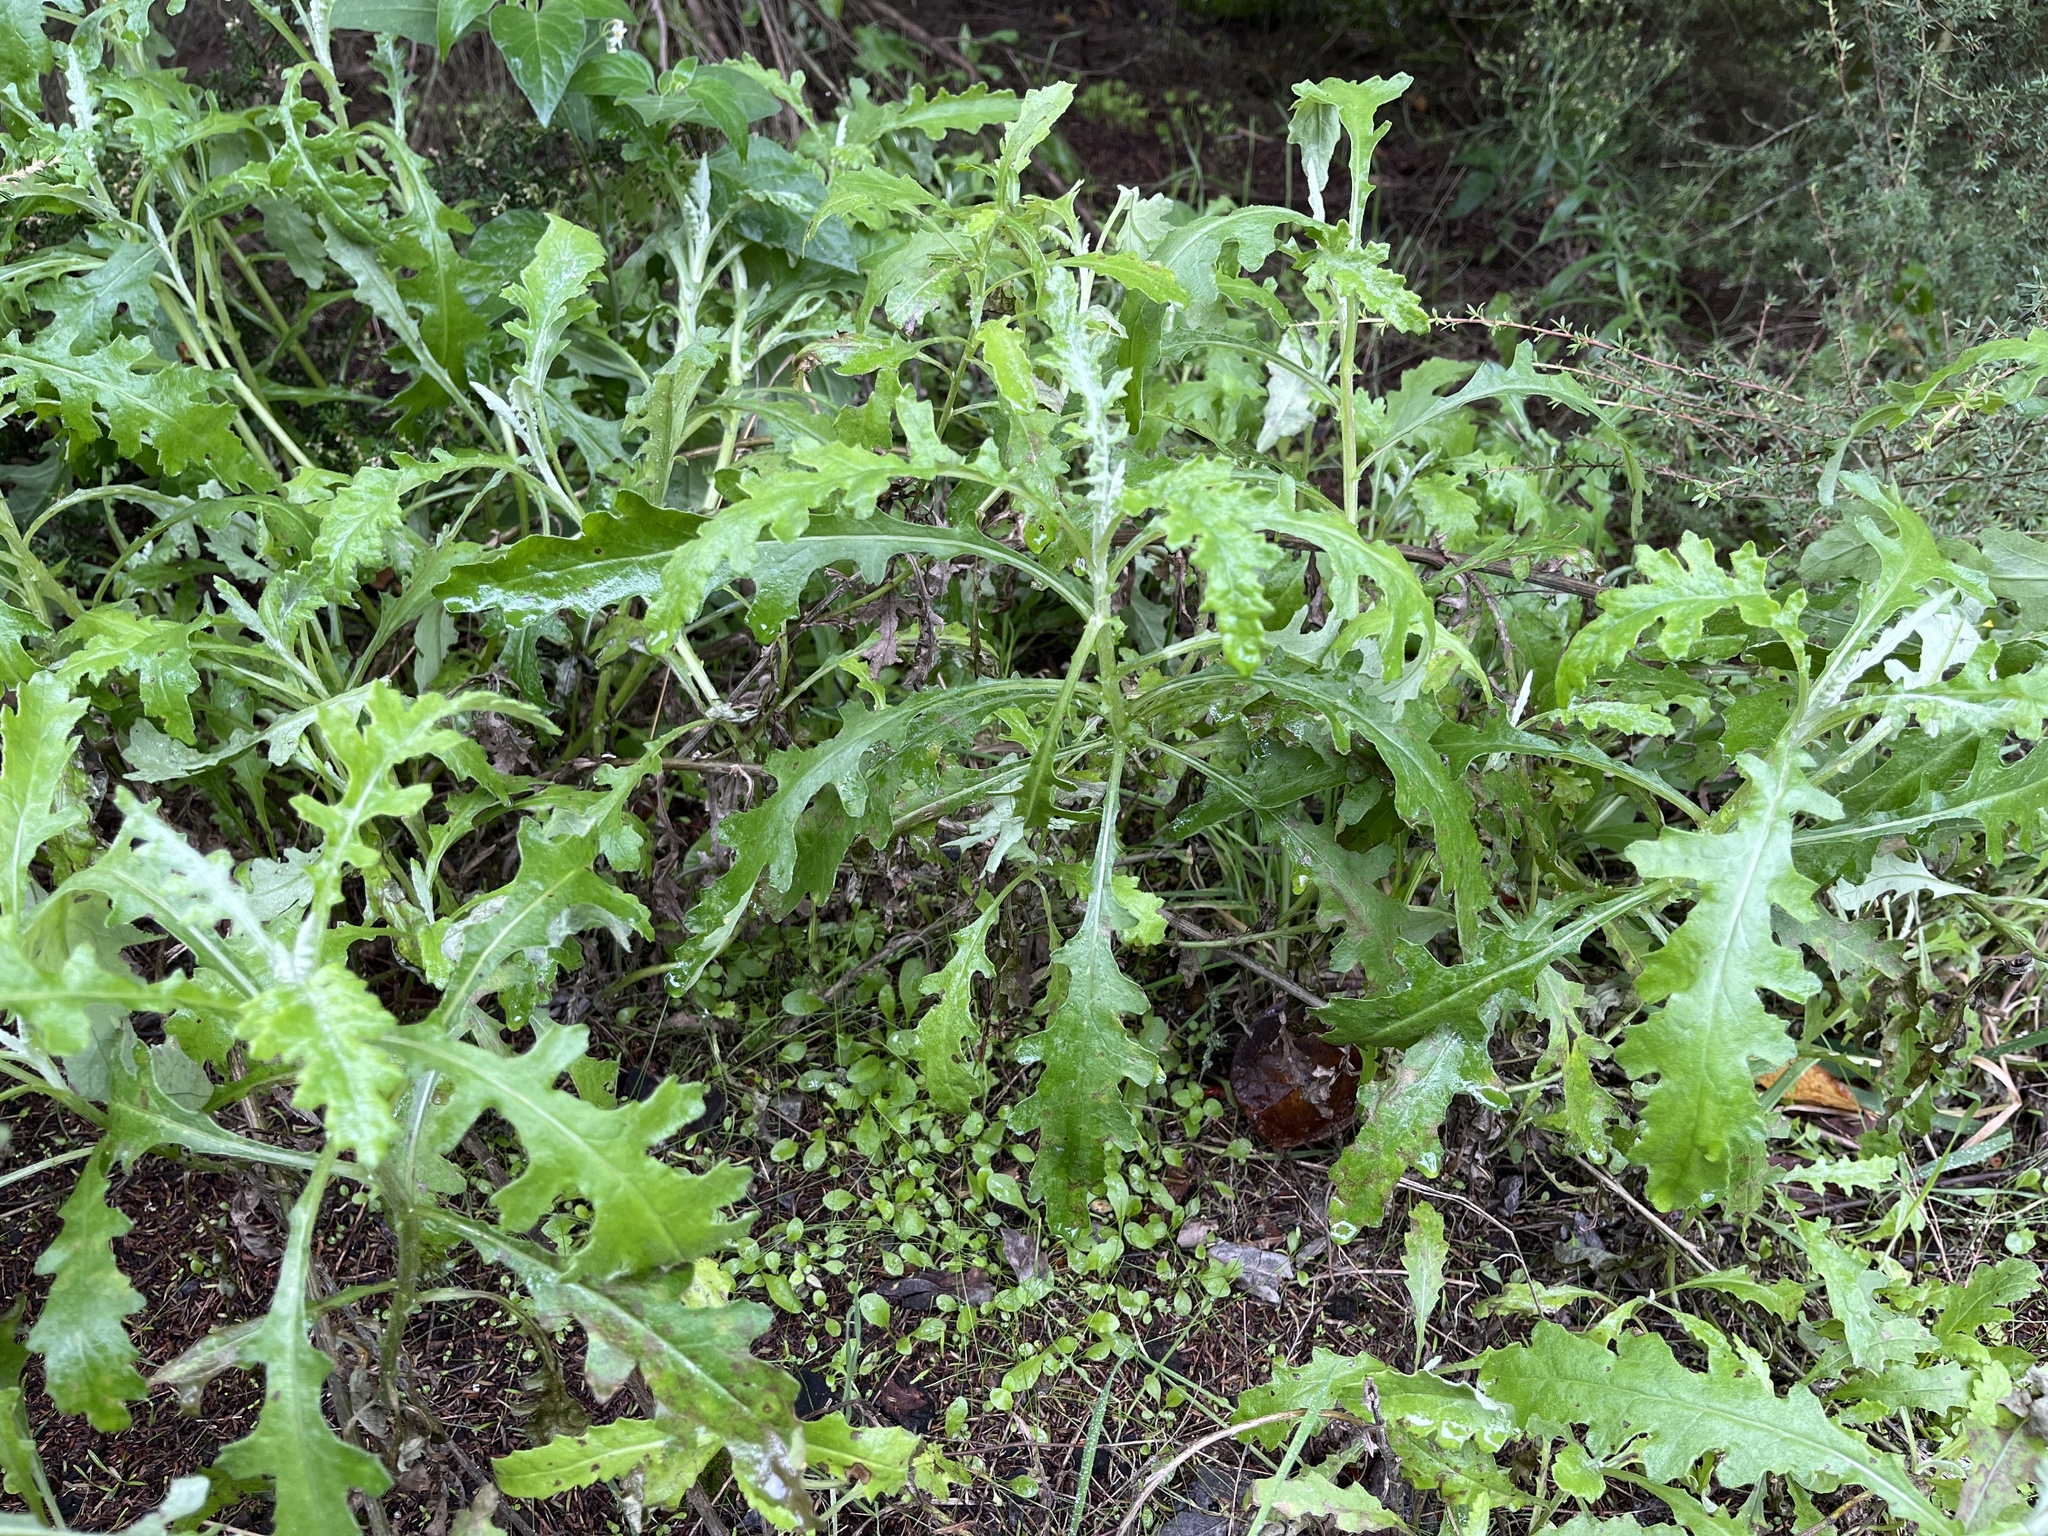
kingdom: Plantae
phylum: Tracheophyta
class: Magnoliopsida
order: Asterales
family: Asteraceae
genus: Senecio
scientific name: Senecio glomeratus
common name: Cutleaf burnweed
